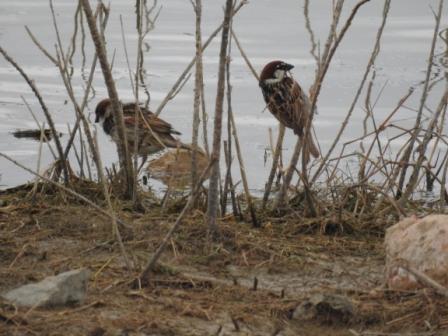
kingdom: Animalia
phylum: Chordata
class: Aves
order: Passeriformes
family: Passeridae
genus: Passer
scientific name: Passer hispaniolensis
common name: Spanish sparrow
